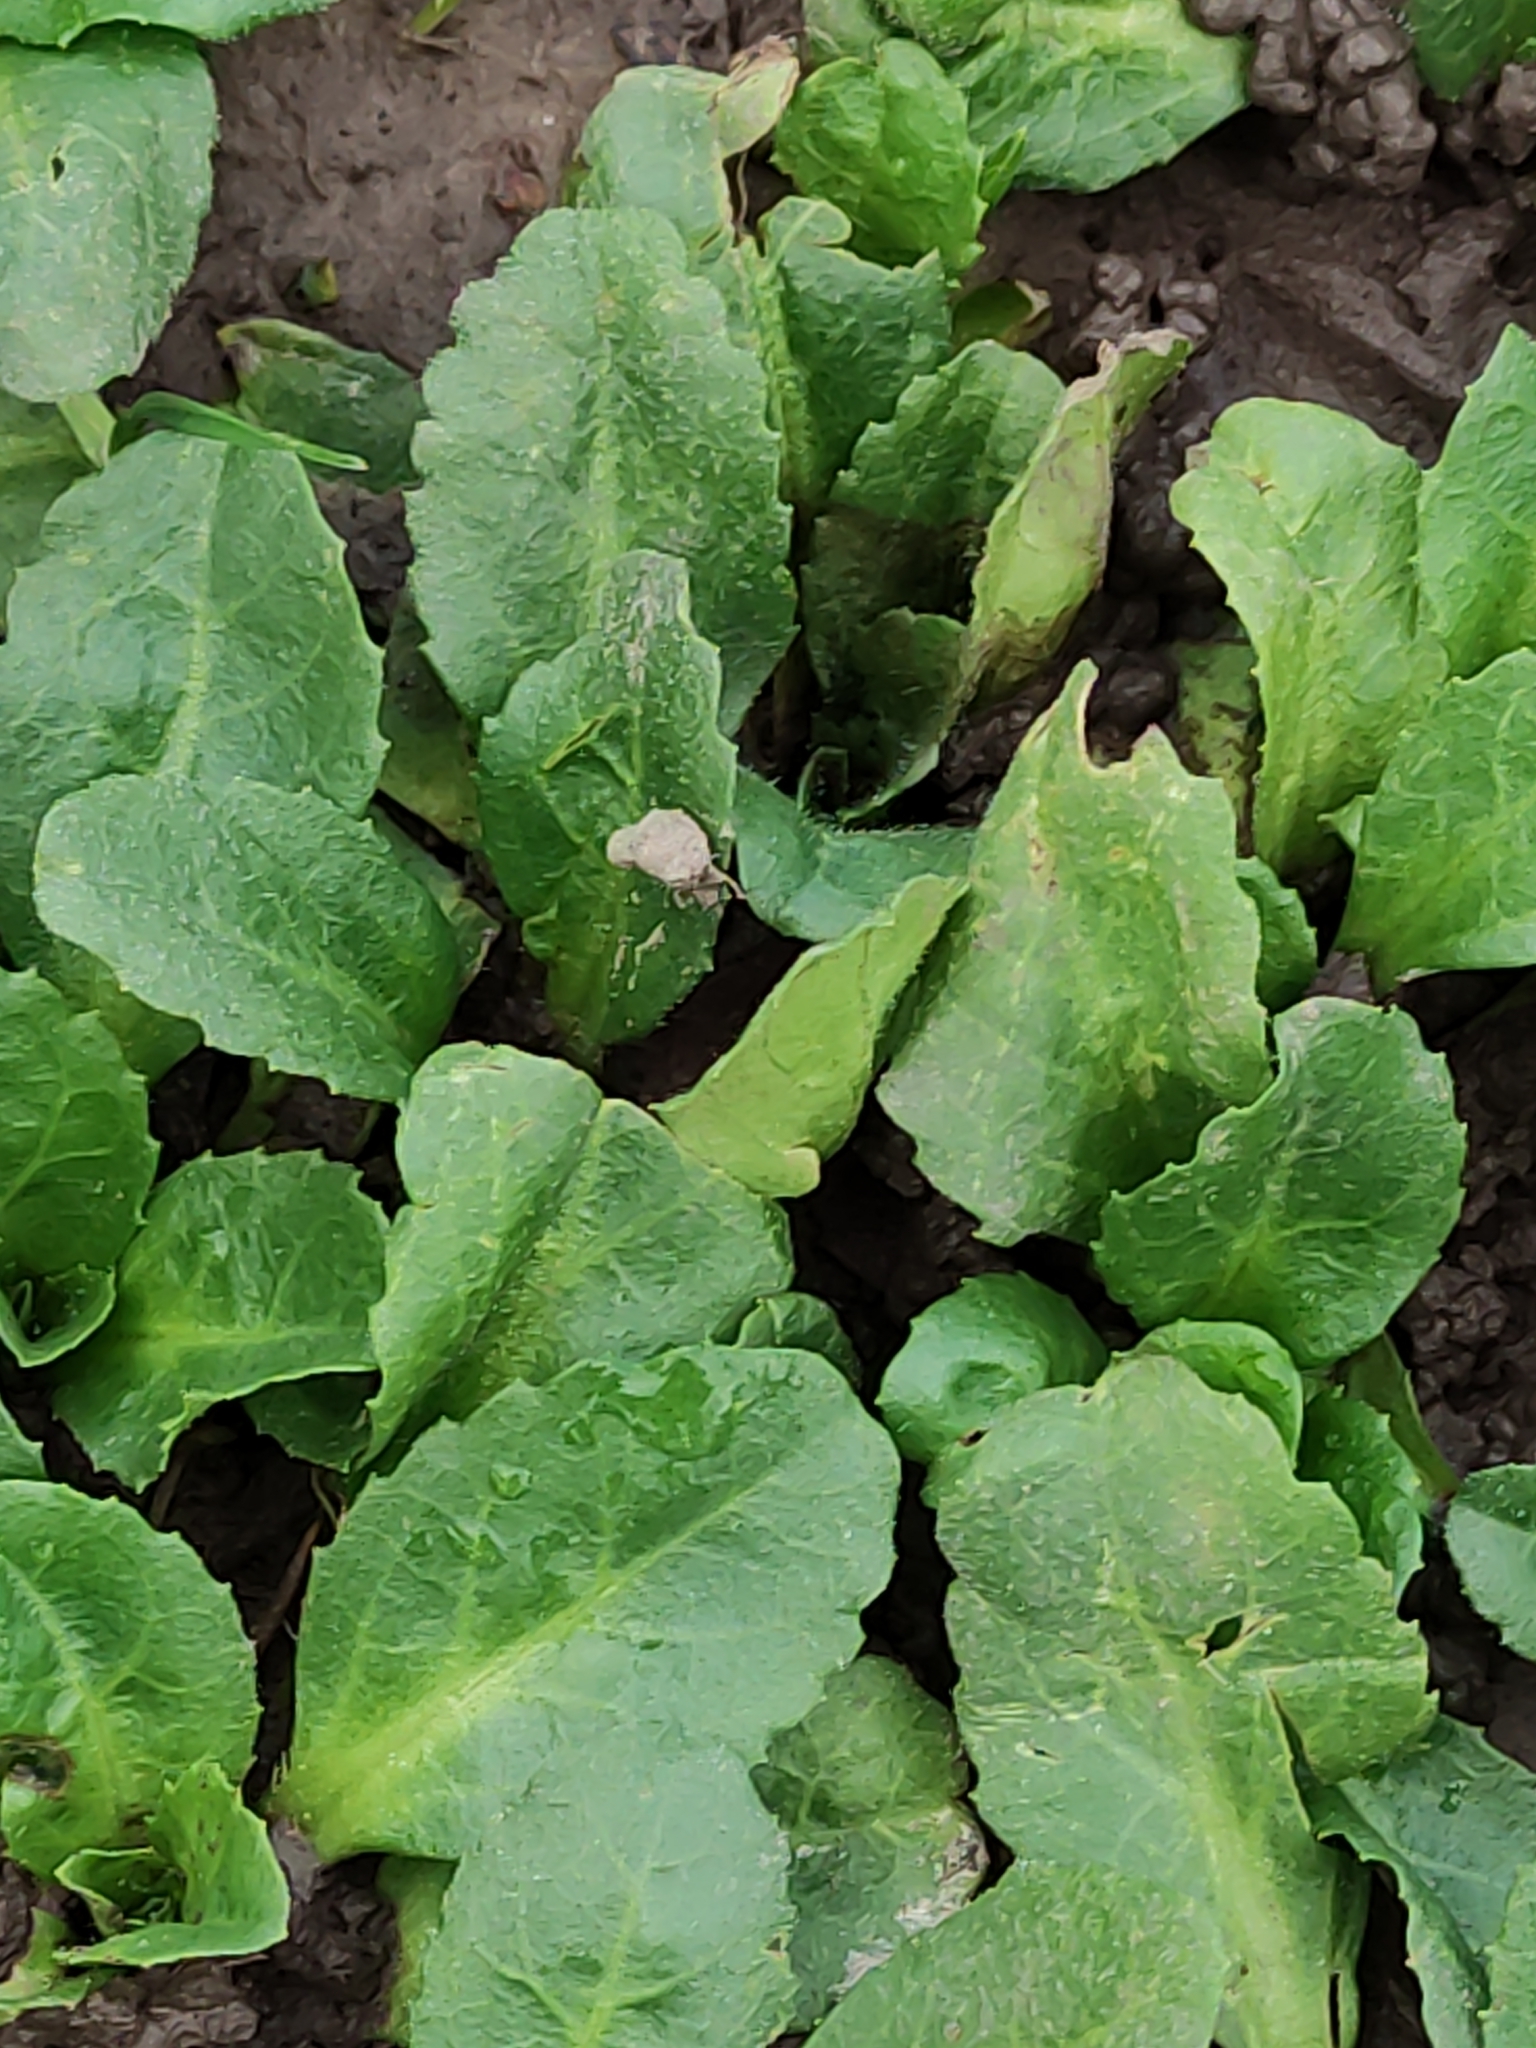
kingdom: Plantae
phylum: Tracheophyta
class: Magnoliopsida
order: Asterales
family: Asteraceae
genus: Bellis
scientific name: Bellis perennis
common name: Lawndaisy
